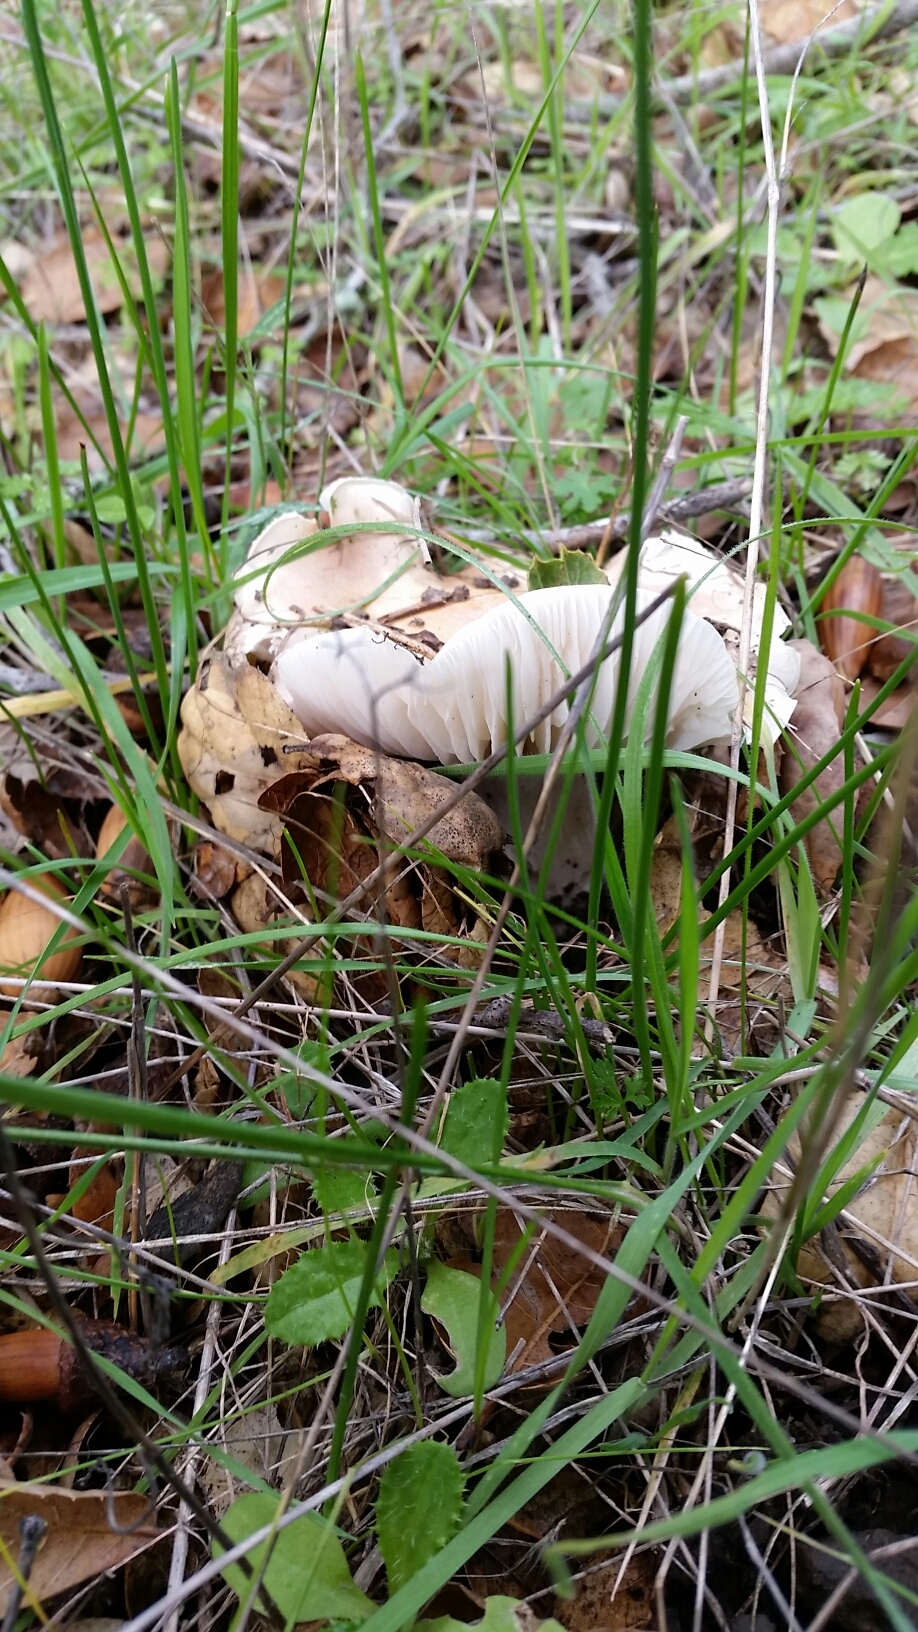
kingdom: Fungi
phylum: Basidiomycota
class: Agaricomycetes
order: Agaricales
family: Omphalotaceae
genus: Gymnopus
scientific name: Gymnopus dryophilus
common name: Penny top
